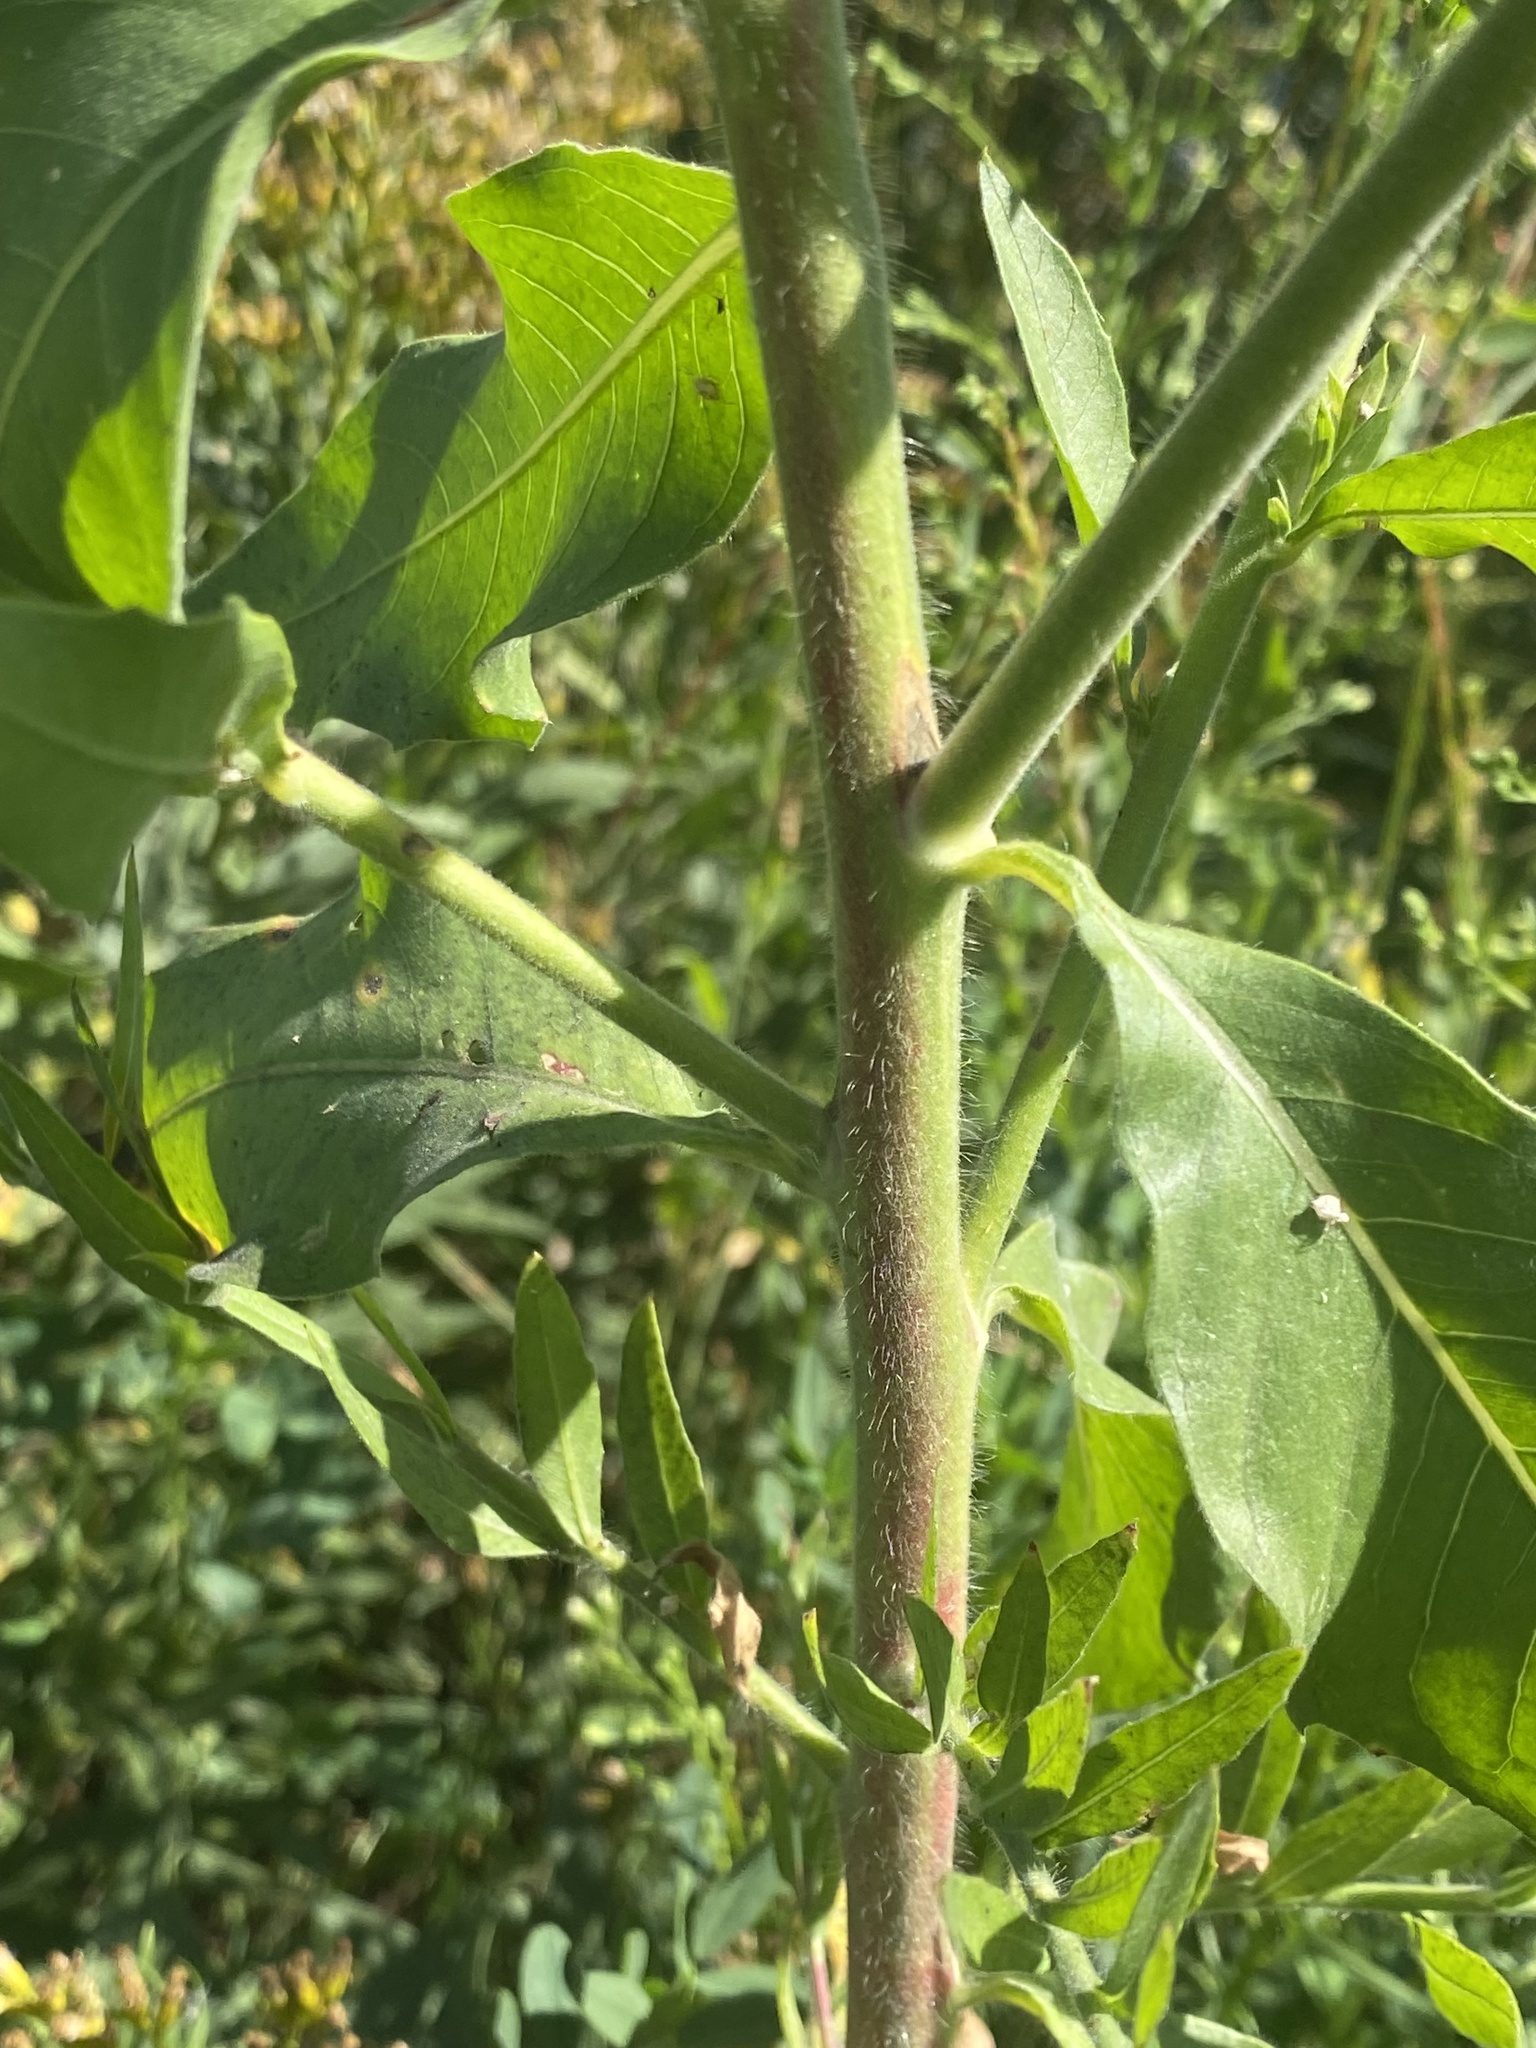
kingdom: Plantae
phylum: Tracheophyta
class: Magnoliopsida
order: Myrtales
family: Onagraceae
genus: Oenothera
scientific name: Oenothera curtiflora
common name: Velvetweed
